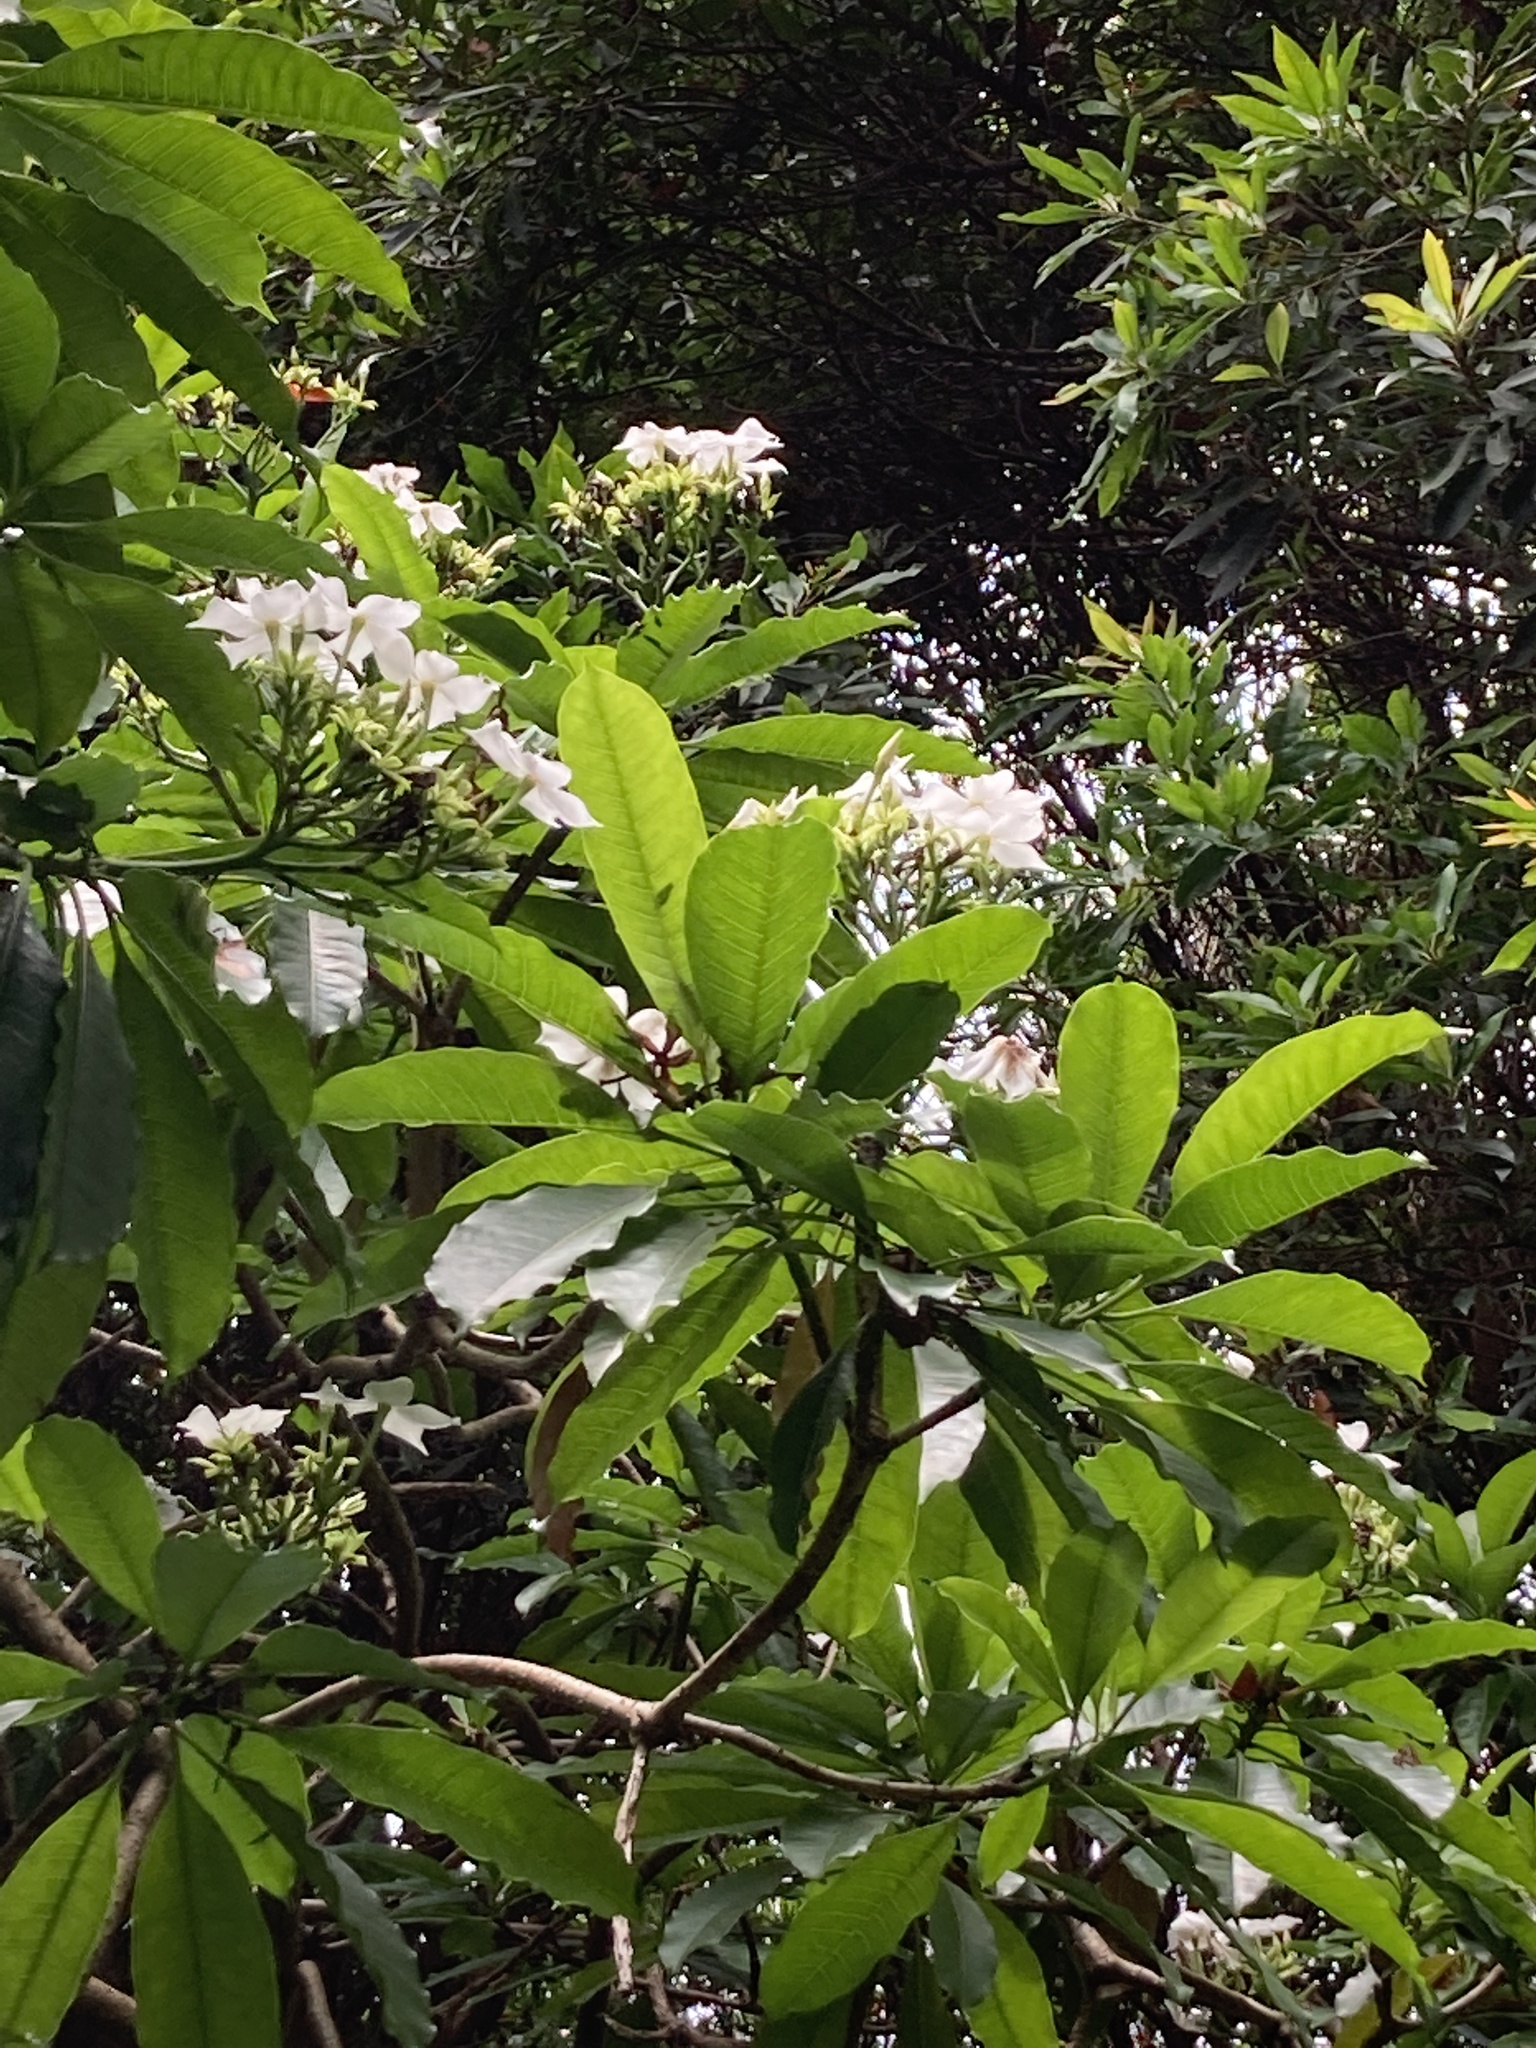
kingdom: Plantae
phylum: Tracheophyta
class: Magnoliopsida
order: Gentianales
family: Apocynaceae
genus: Cerbera
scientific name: Cerbera manghas
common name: Reva
